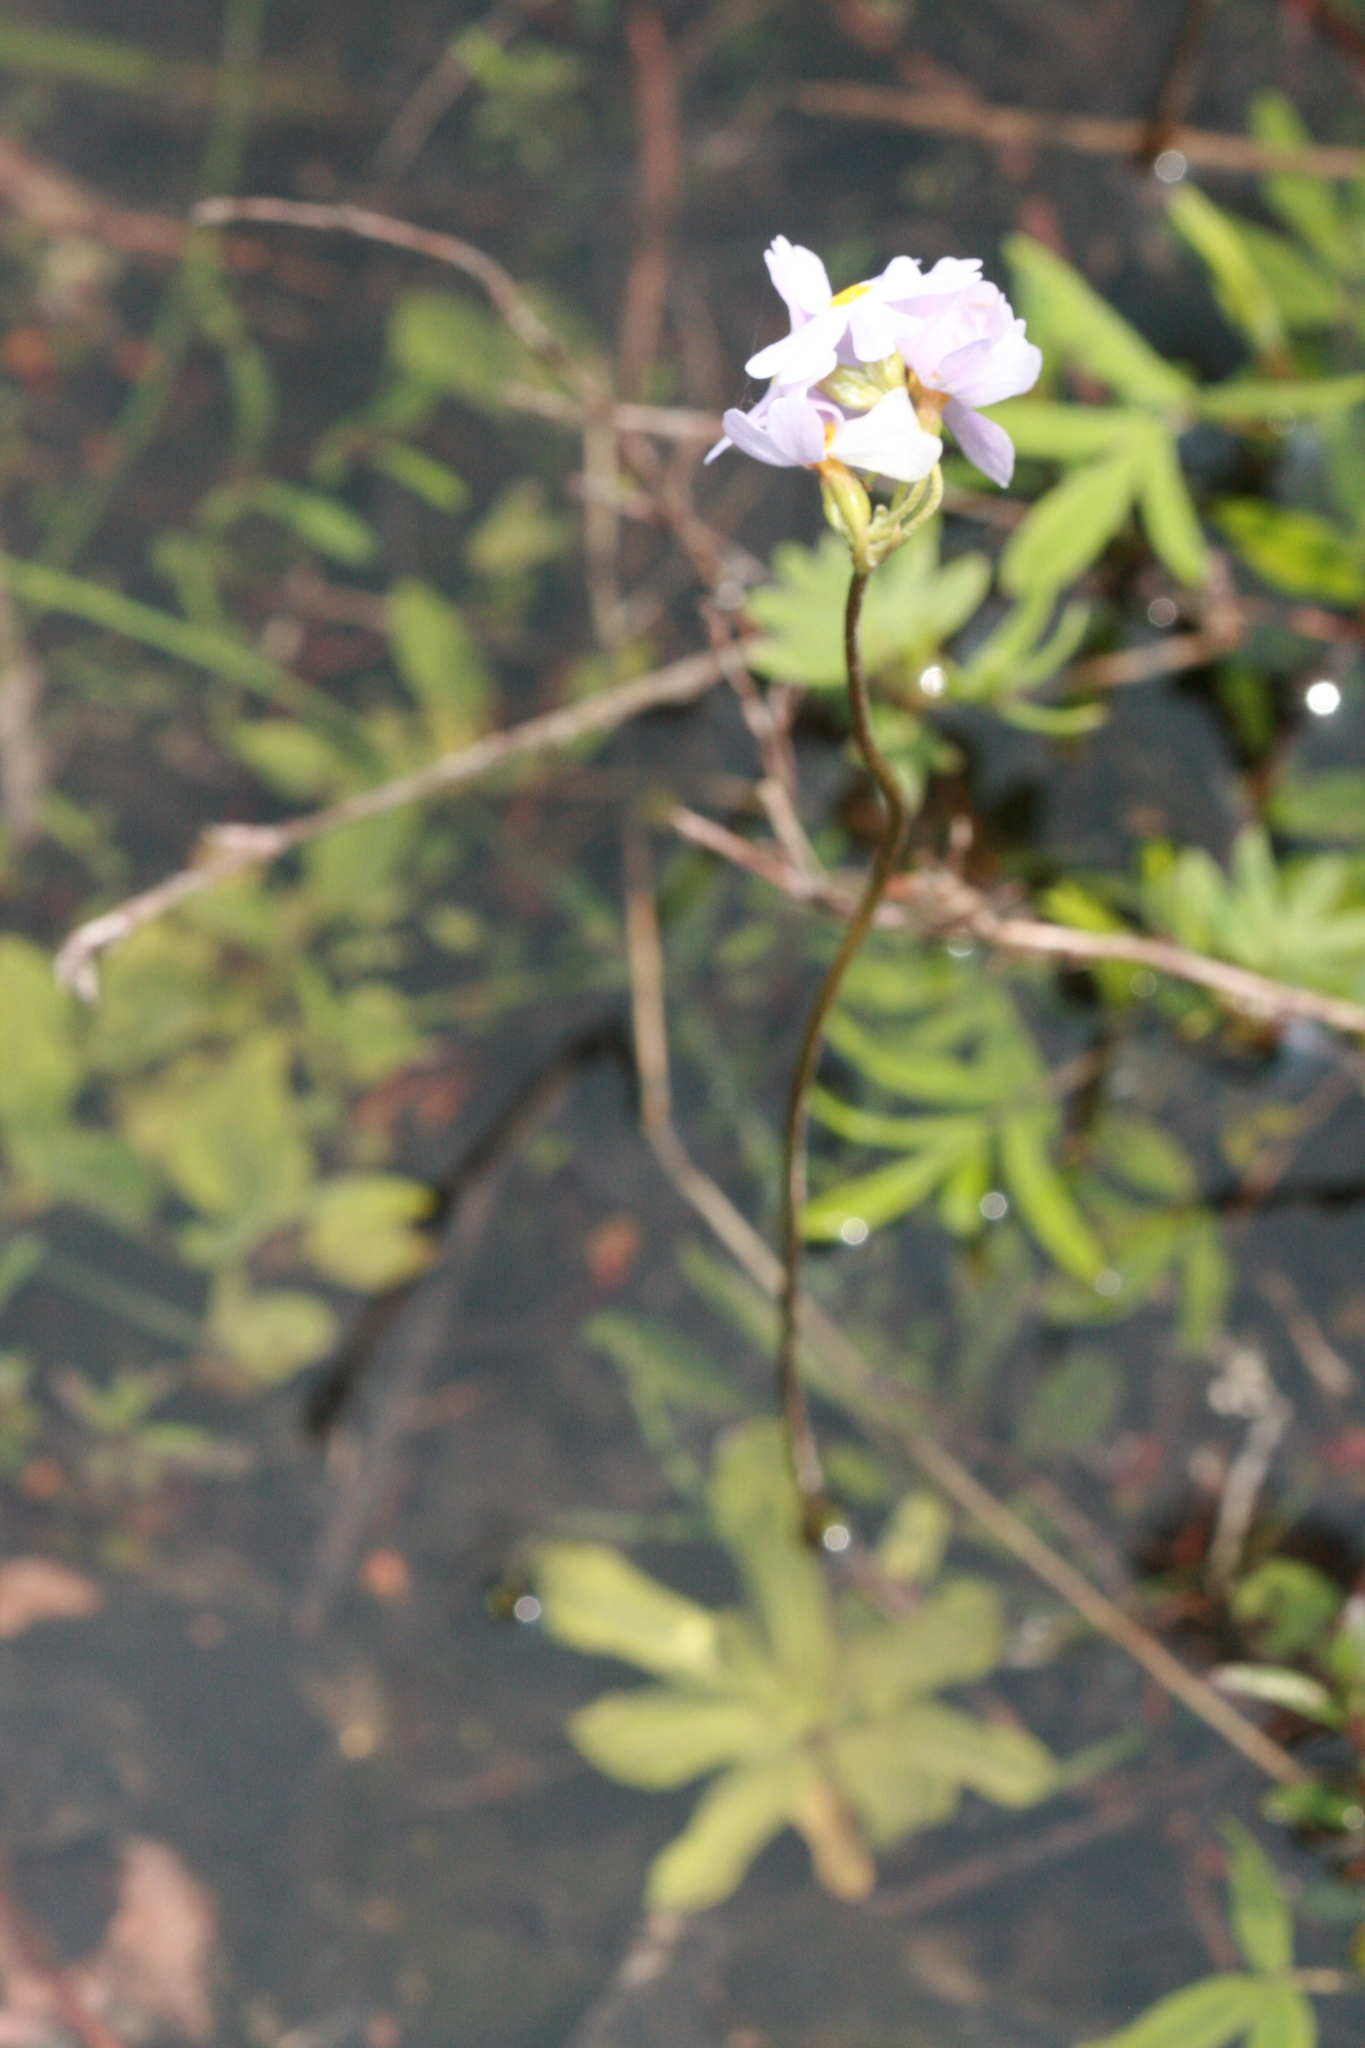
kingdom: Plantae
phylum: Tracheophyta
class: Magnoliopsida
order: Ericales
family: Primulaceae
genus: Primula
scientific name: Primula mistassinica
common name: Bird's-eye primrose
